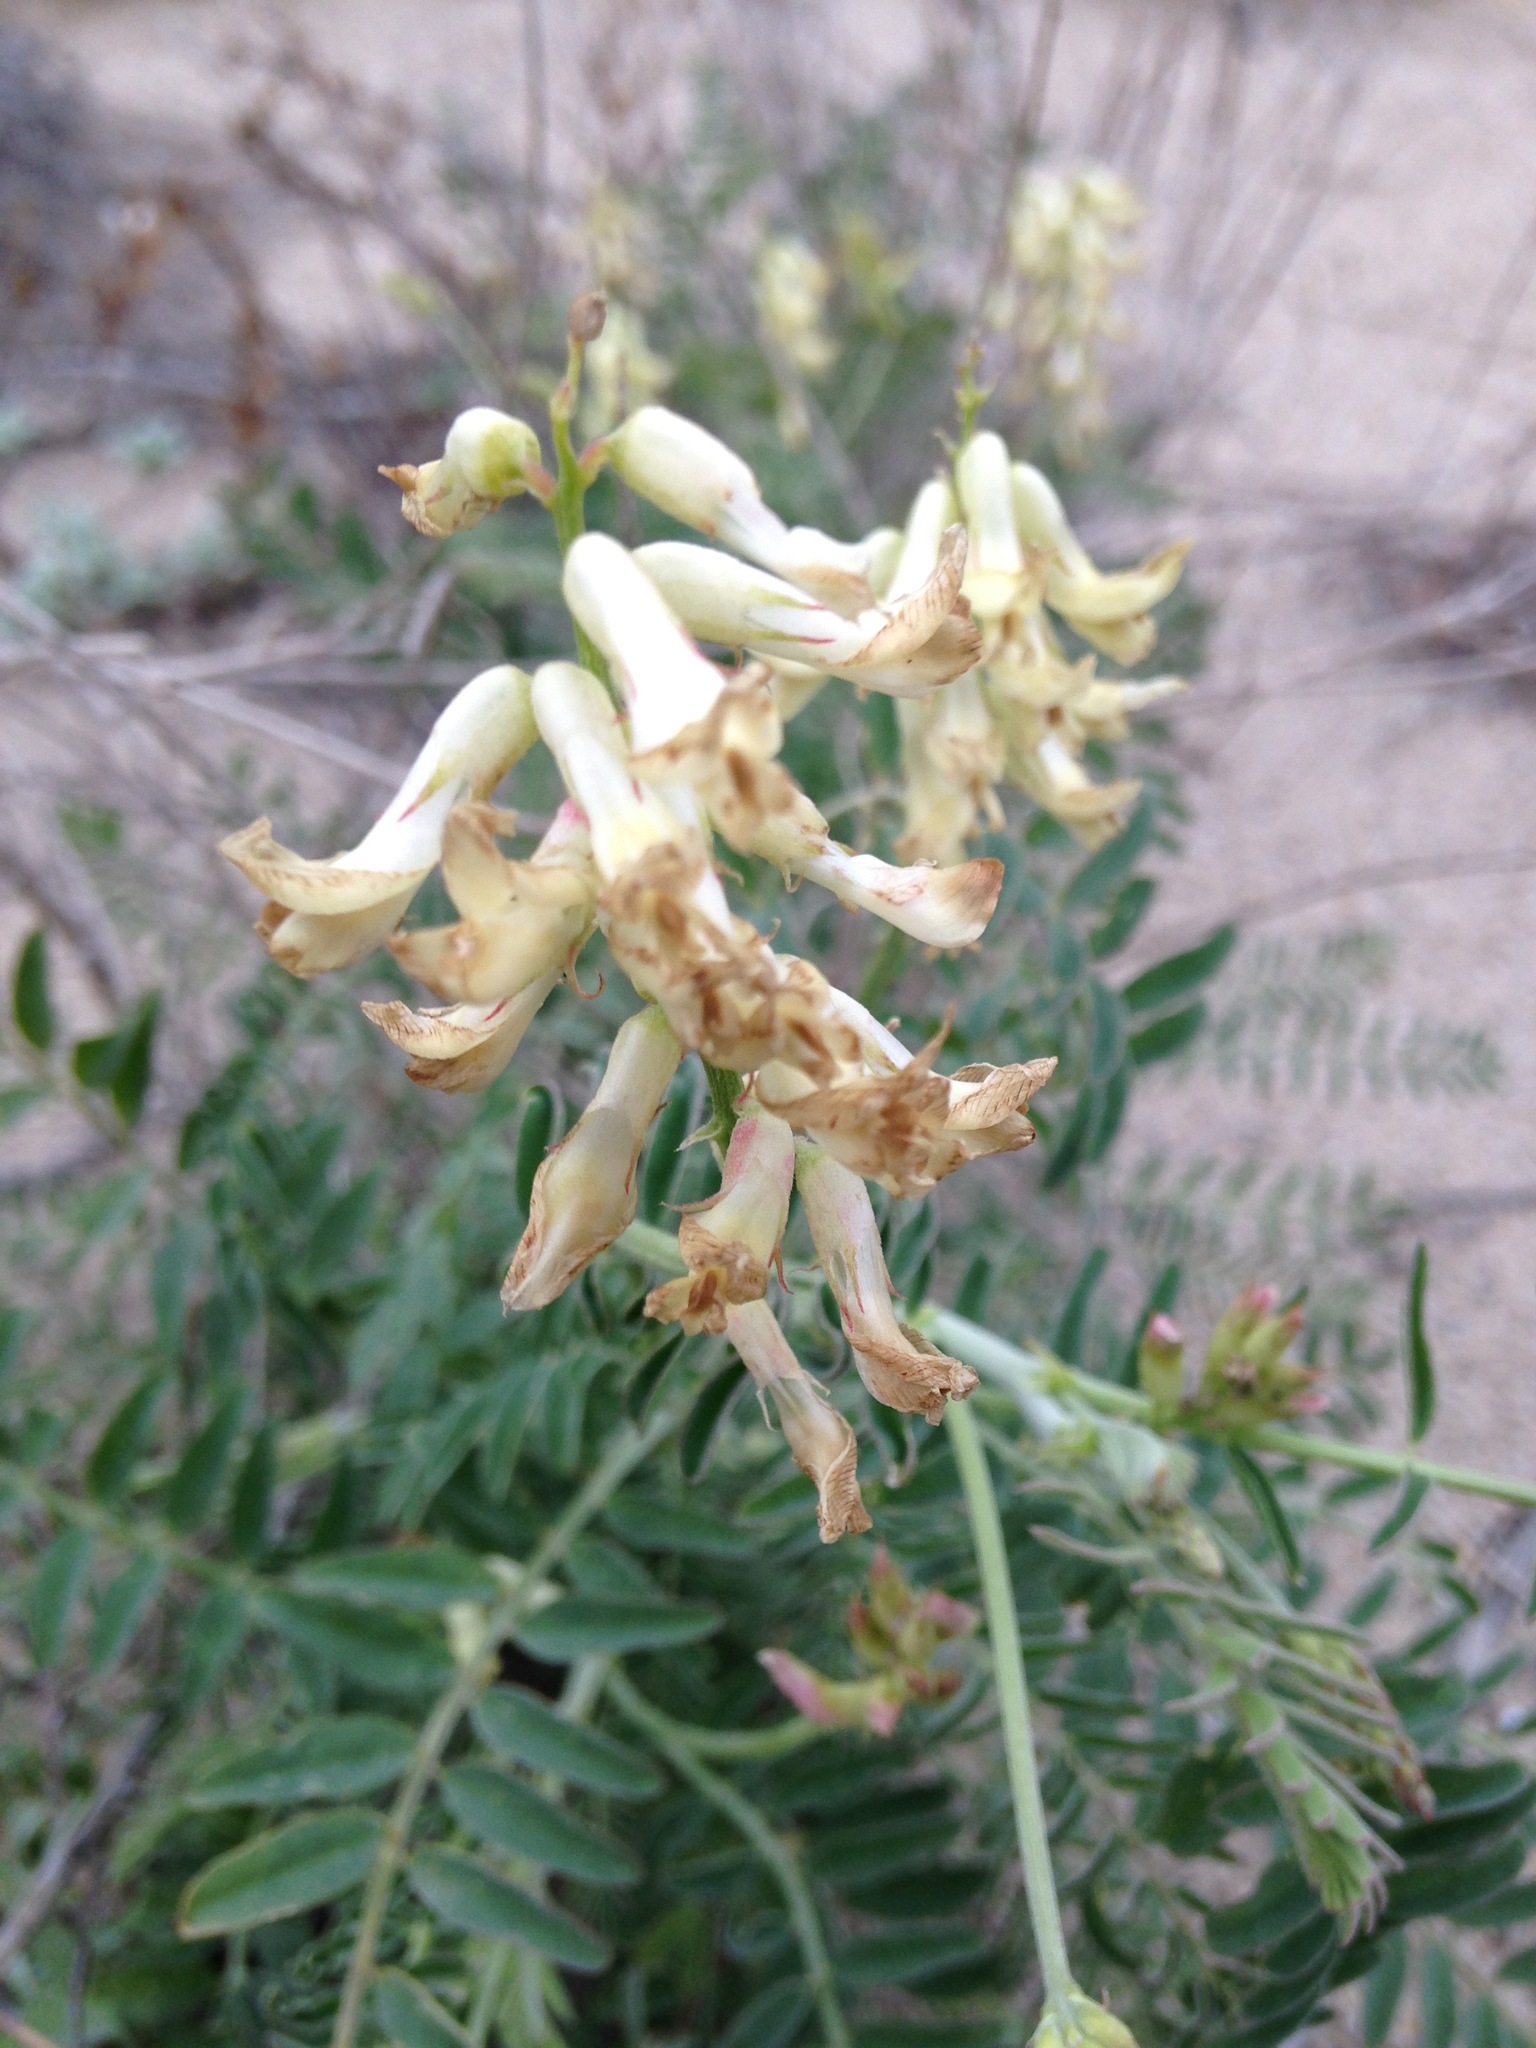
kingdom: Plantae
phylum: Tracheophyta
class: Magnoliopsida
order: Fabales
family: Fabaceae
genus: Astragalus
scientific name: Astragalus trichopodus
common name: Santa barbara milk-vetch
